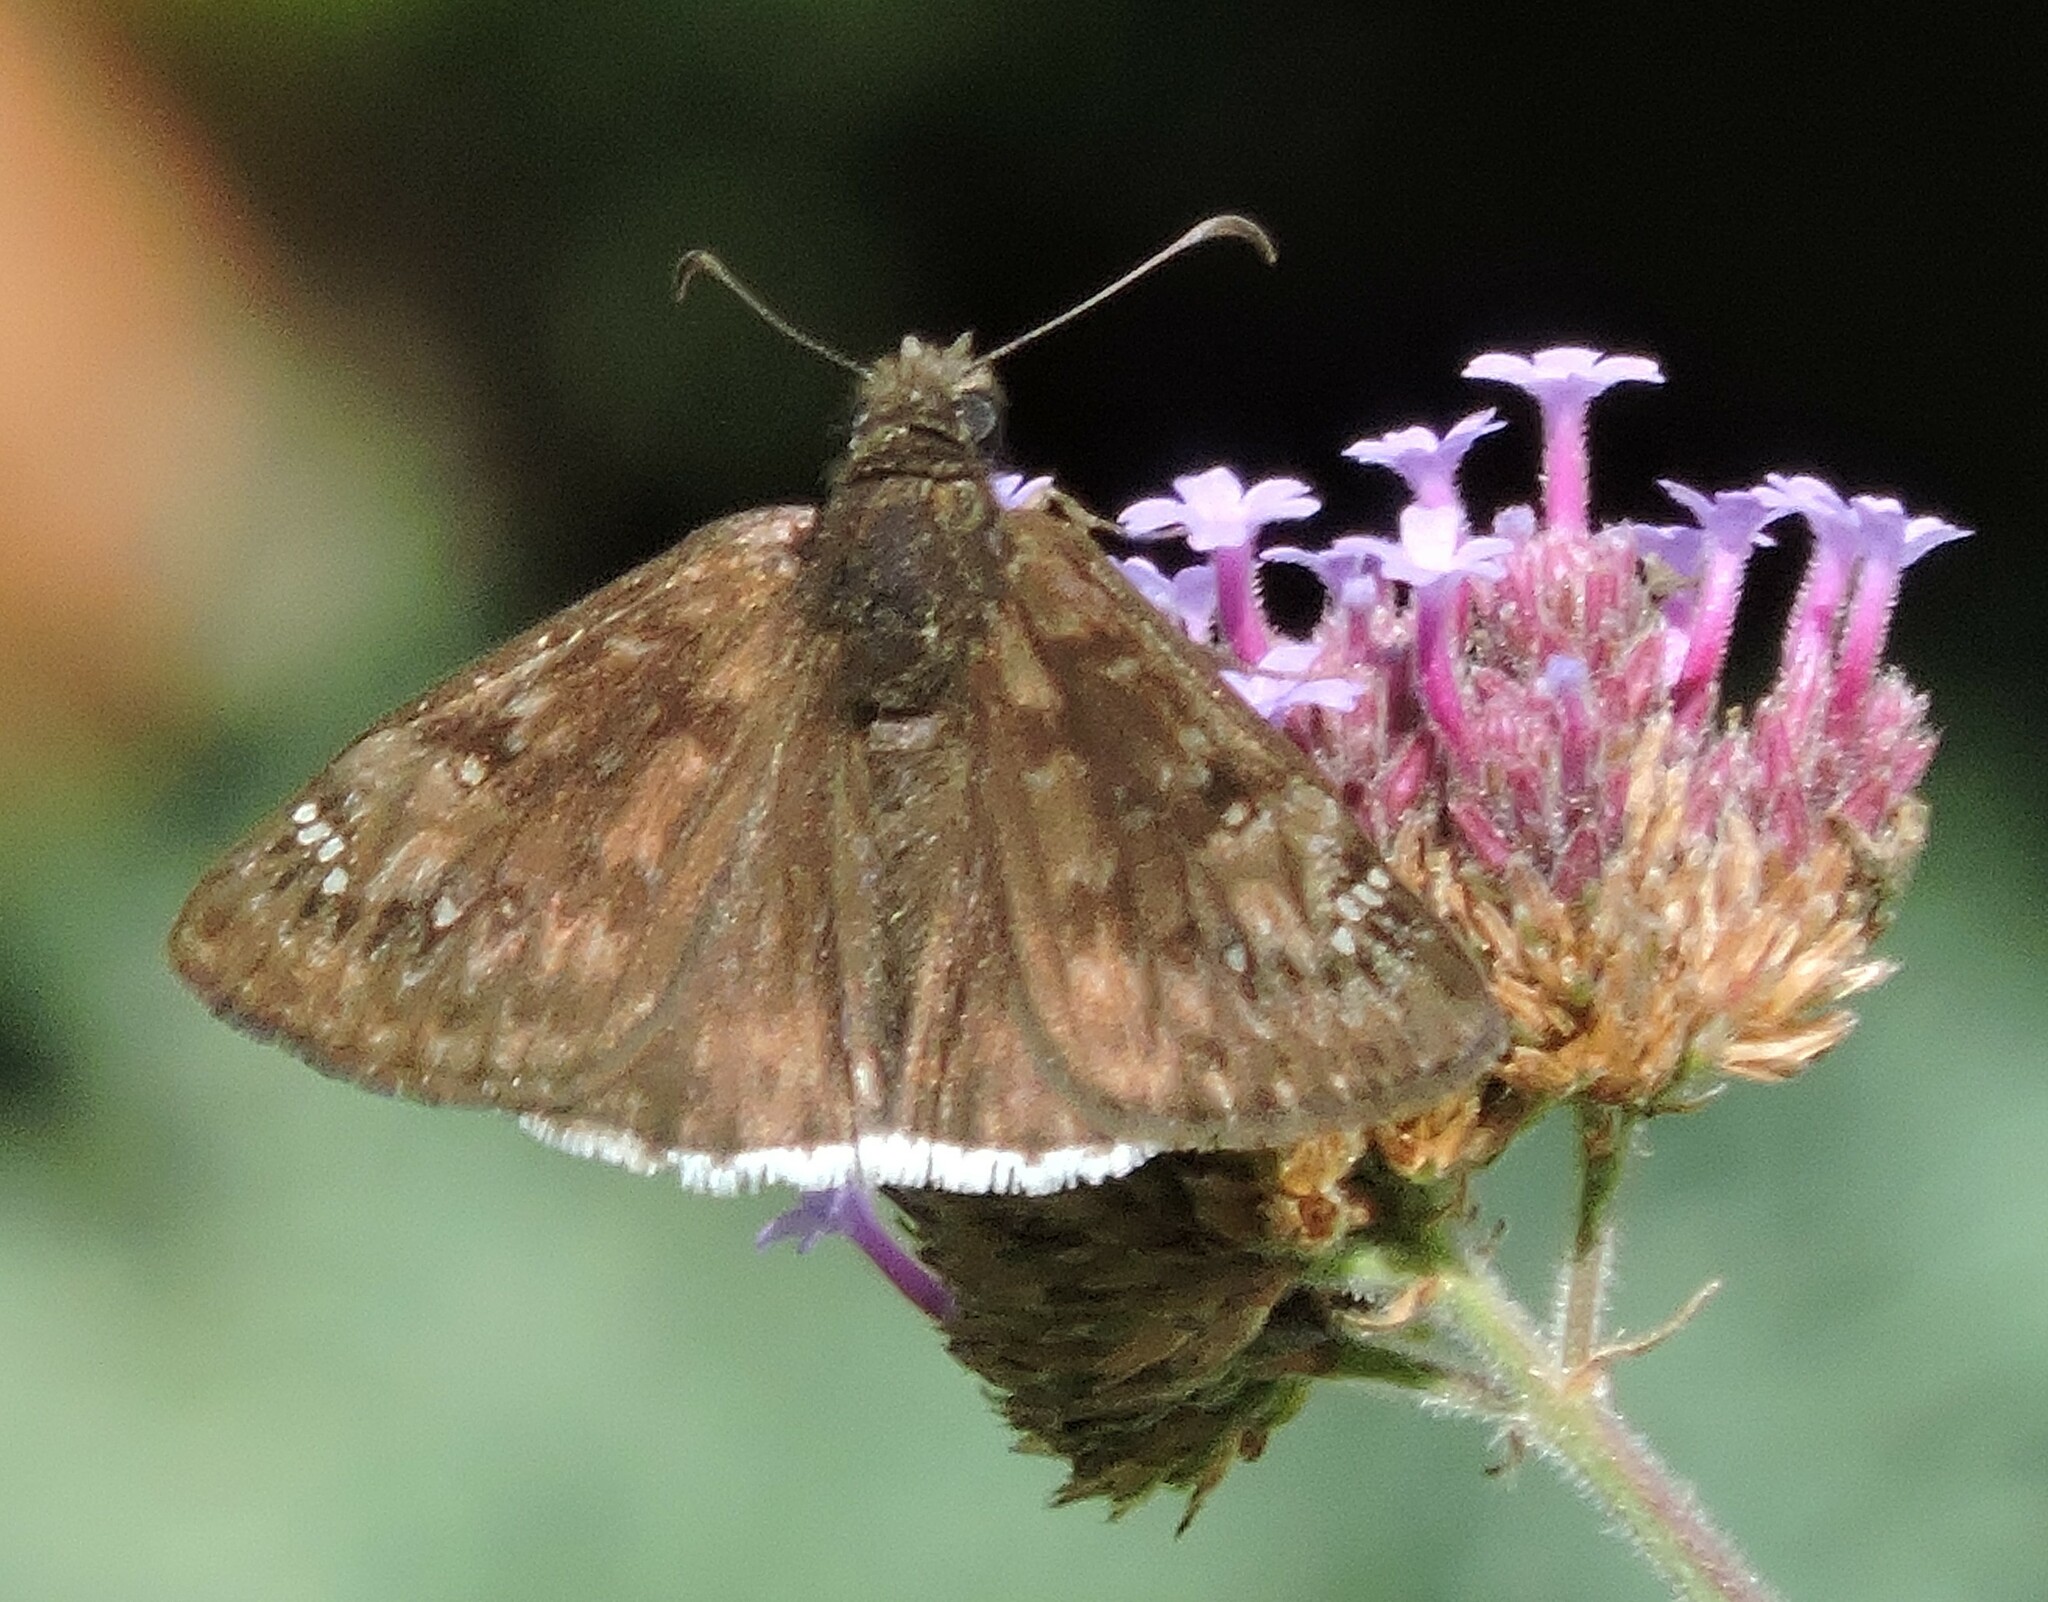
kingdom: Animalia
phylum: Arthropoda
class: Insecta
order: Lepidoptera
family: Hesperiidae
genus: Erynnis
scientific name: Erynnis tristis
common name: Mournful duskywing
